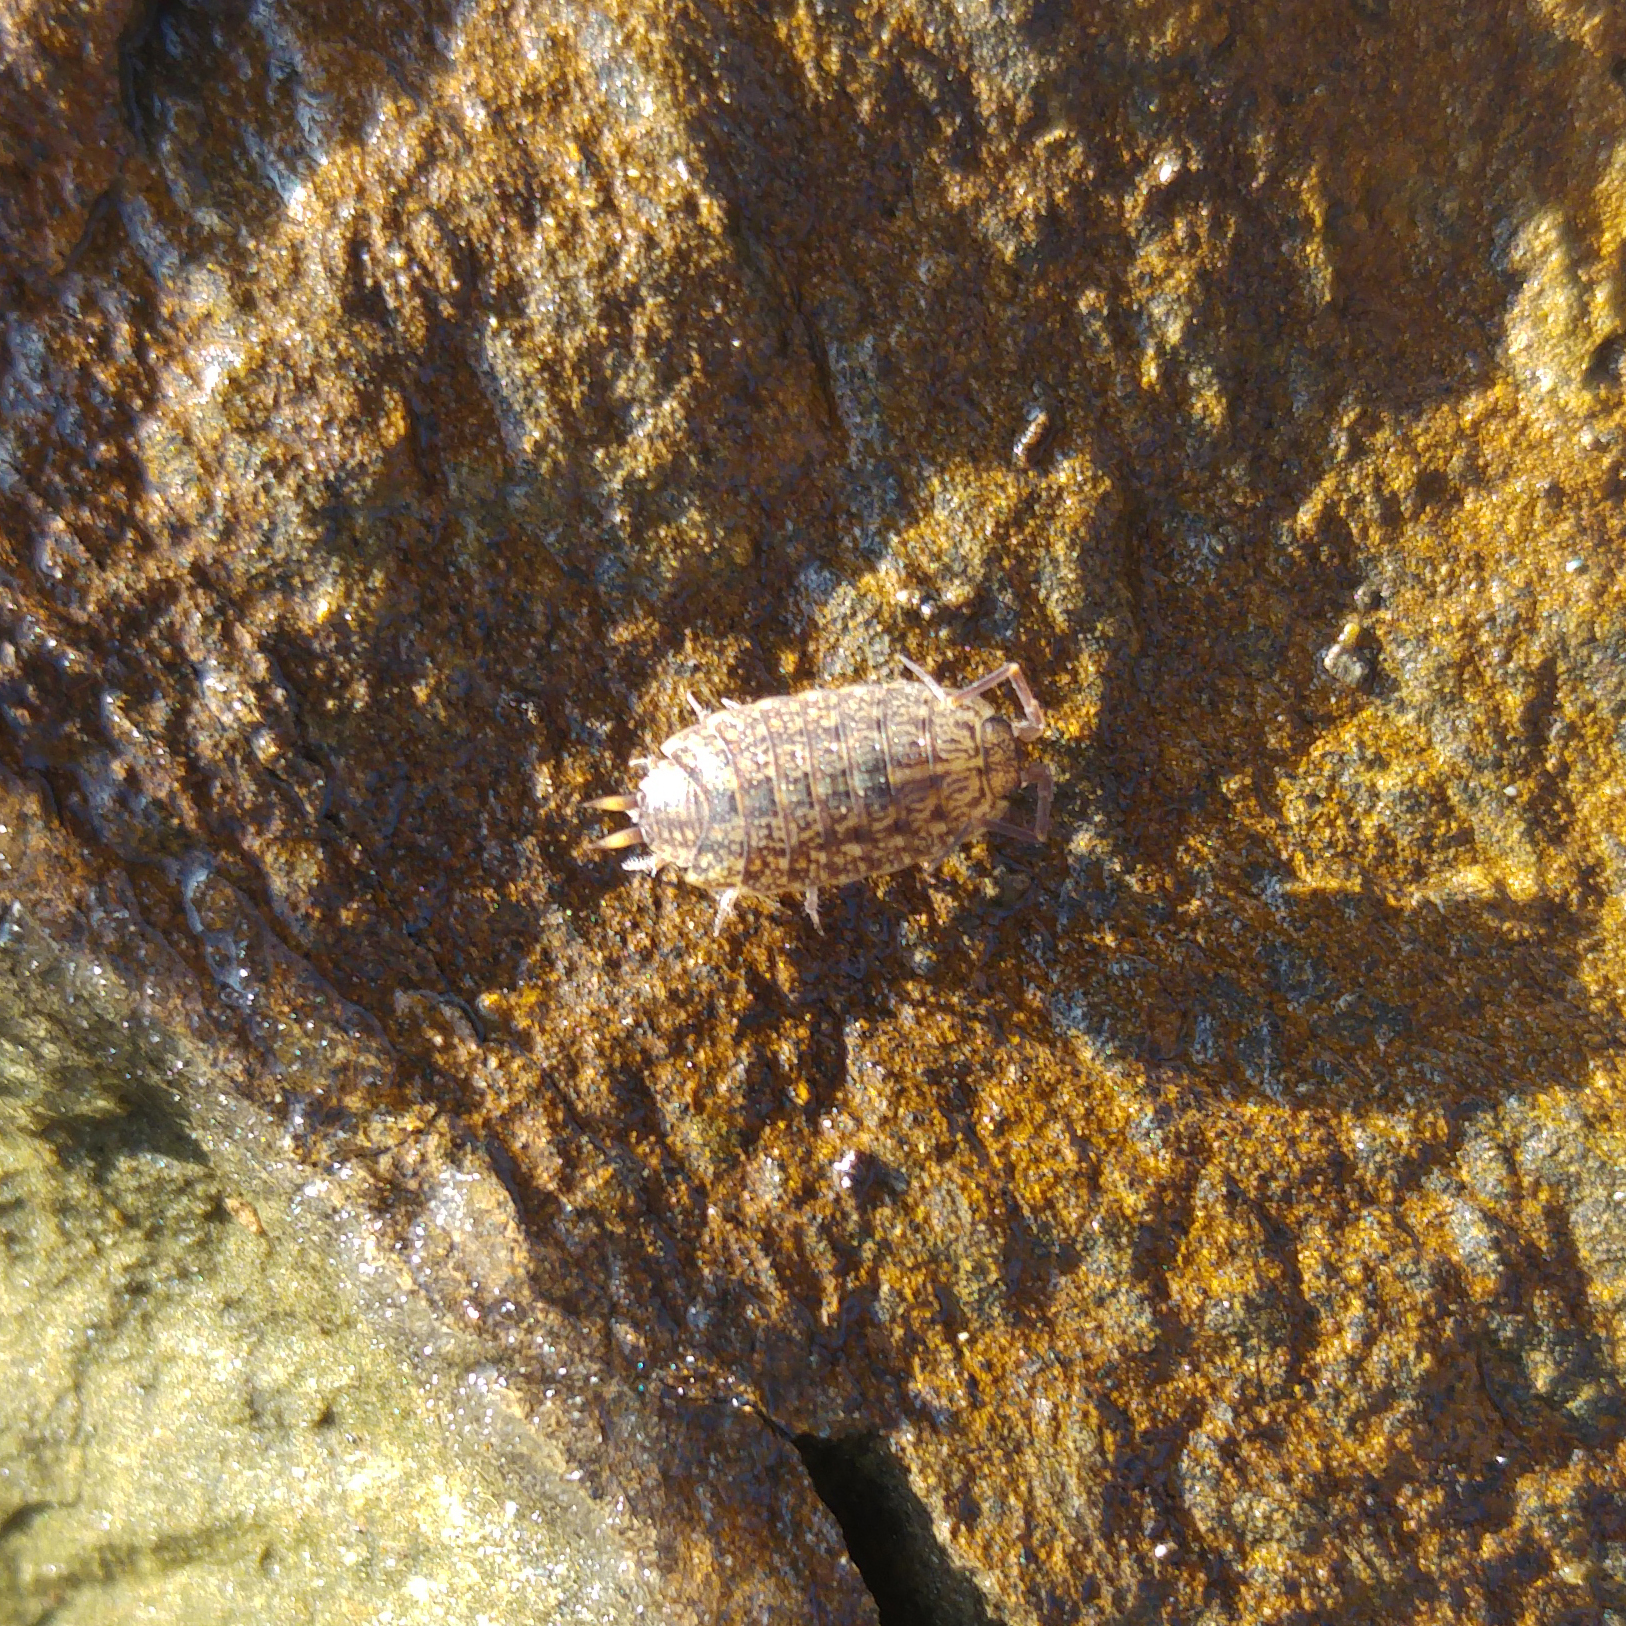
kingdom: Animalia
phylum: Arthropoda
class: Malacostraca
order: Isopoda
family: Agnaridae
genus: Orthometopon
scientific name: Orthometopon dalmatinum
